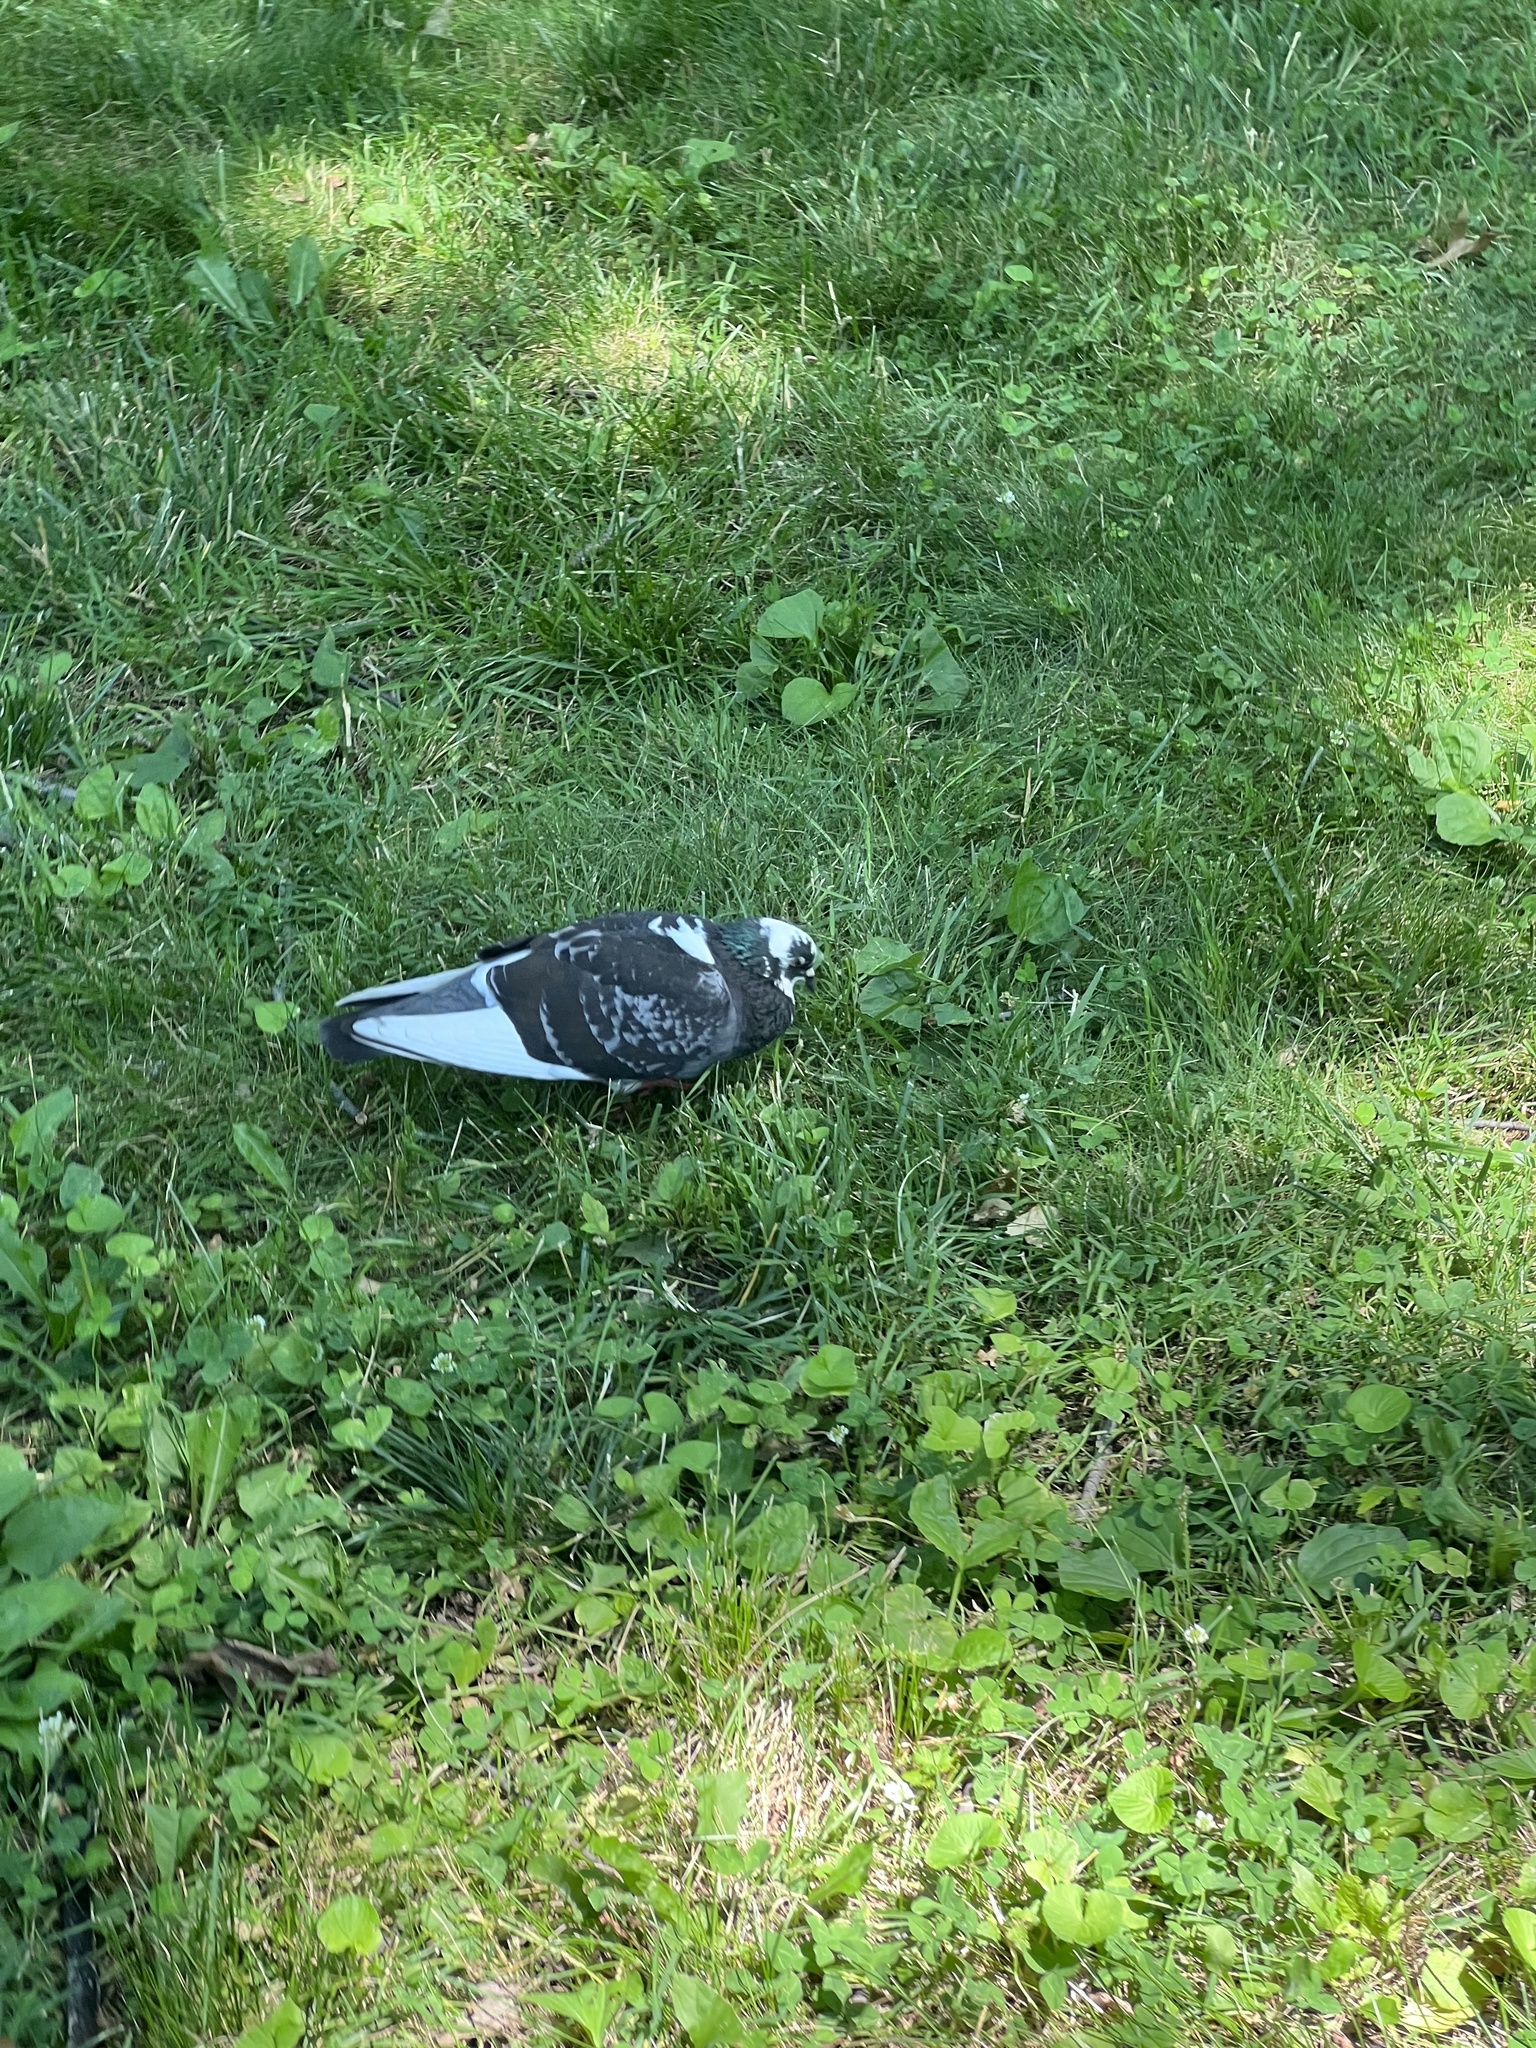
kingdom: Animalia
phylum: Chordata
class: Aves
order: Columbiformes
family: Columbidae
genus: Columba
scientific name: Columba livia
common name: Rock pigeon
